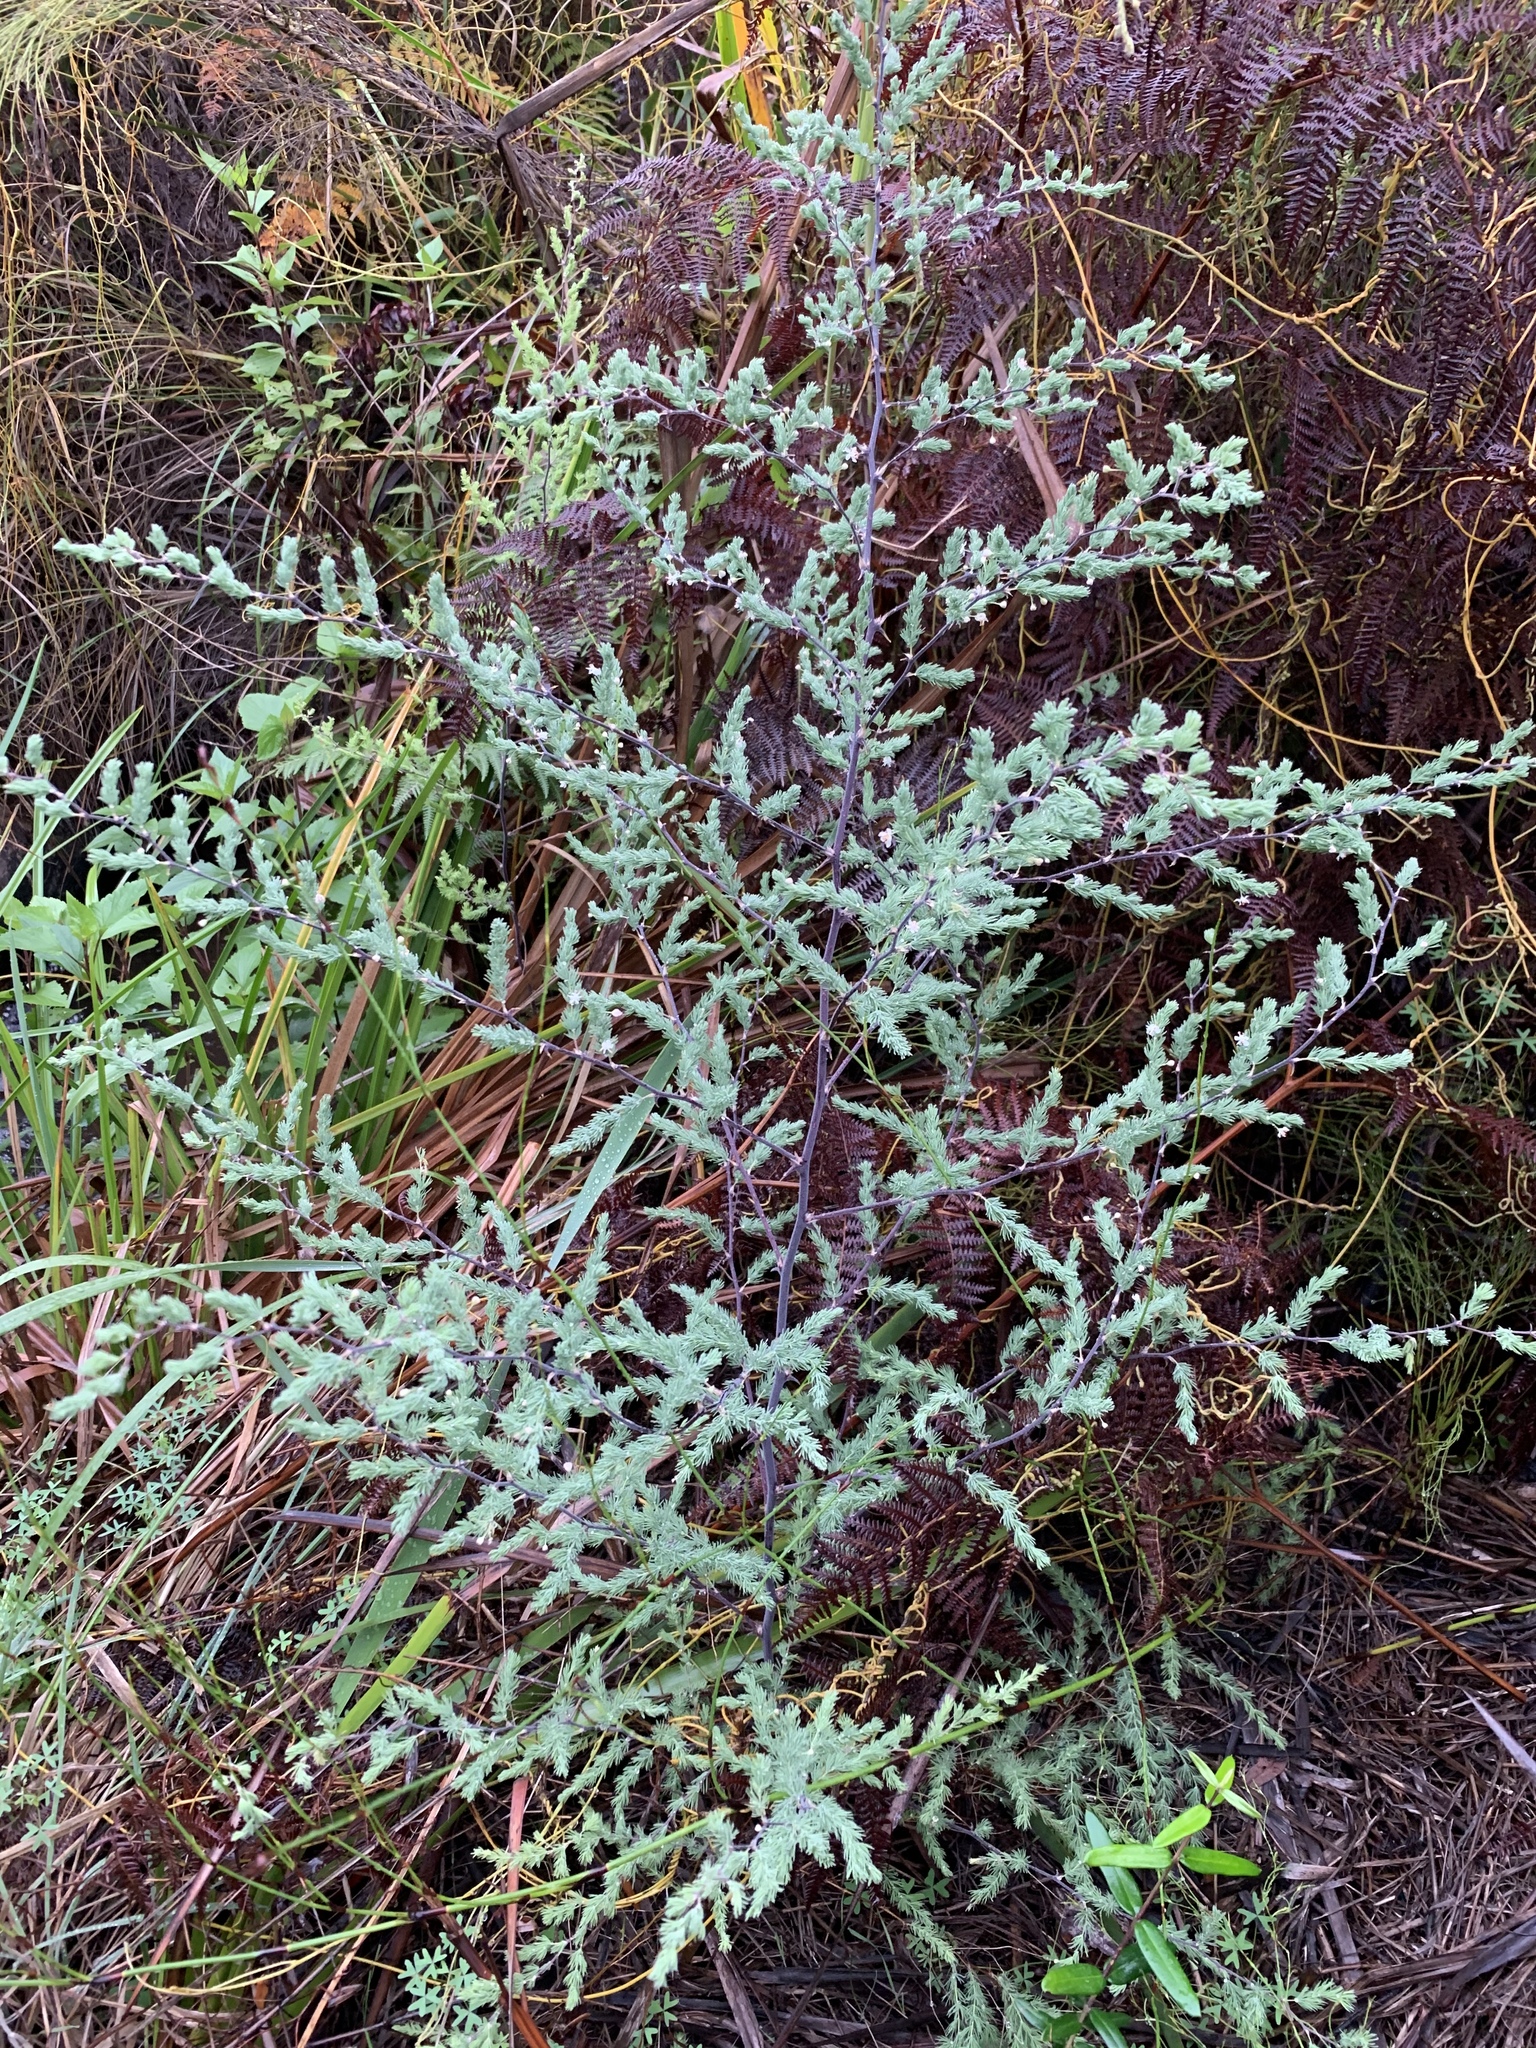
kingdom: Plantae
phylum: Tracheophyta
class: Liliopsida
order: Asparagales
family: Asparagaceae
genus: Asparagus
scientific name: Asparagus rubicundus
